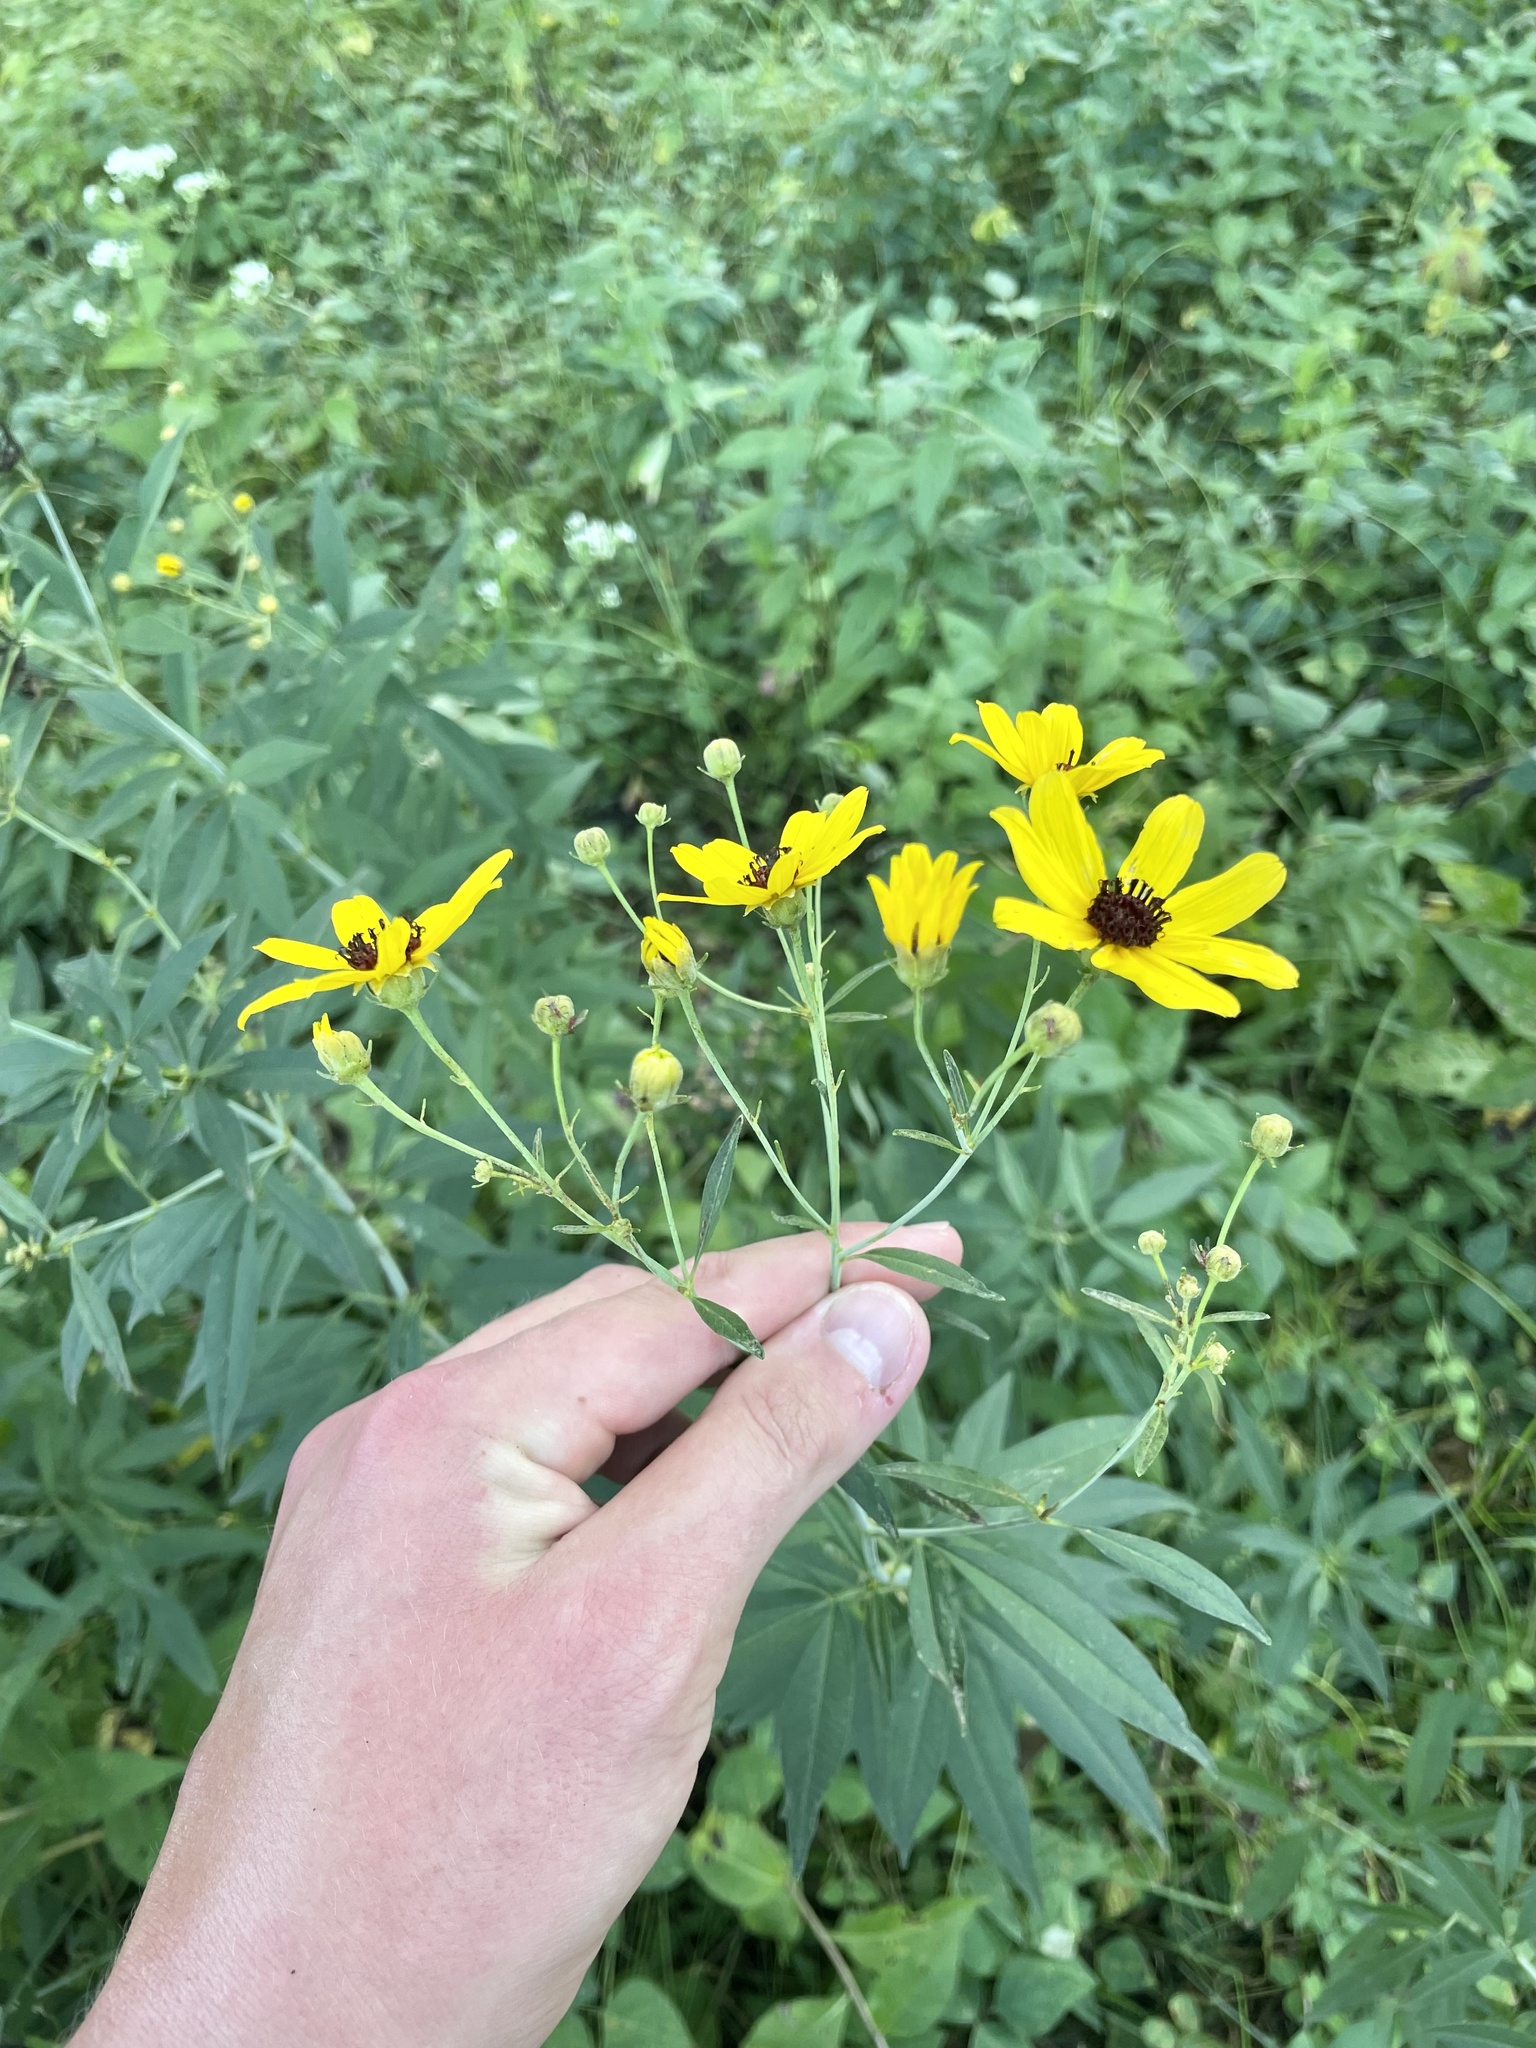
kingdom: Plantae
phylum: Tracheophyta
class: Magnoliopsida
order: Asterales
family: Asteraceae
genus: Coreopsis
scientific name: Coreopsis tripteris
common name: Tall coreopsis
